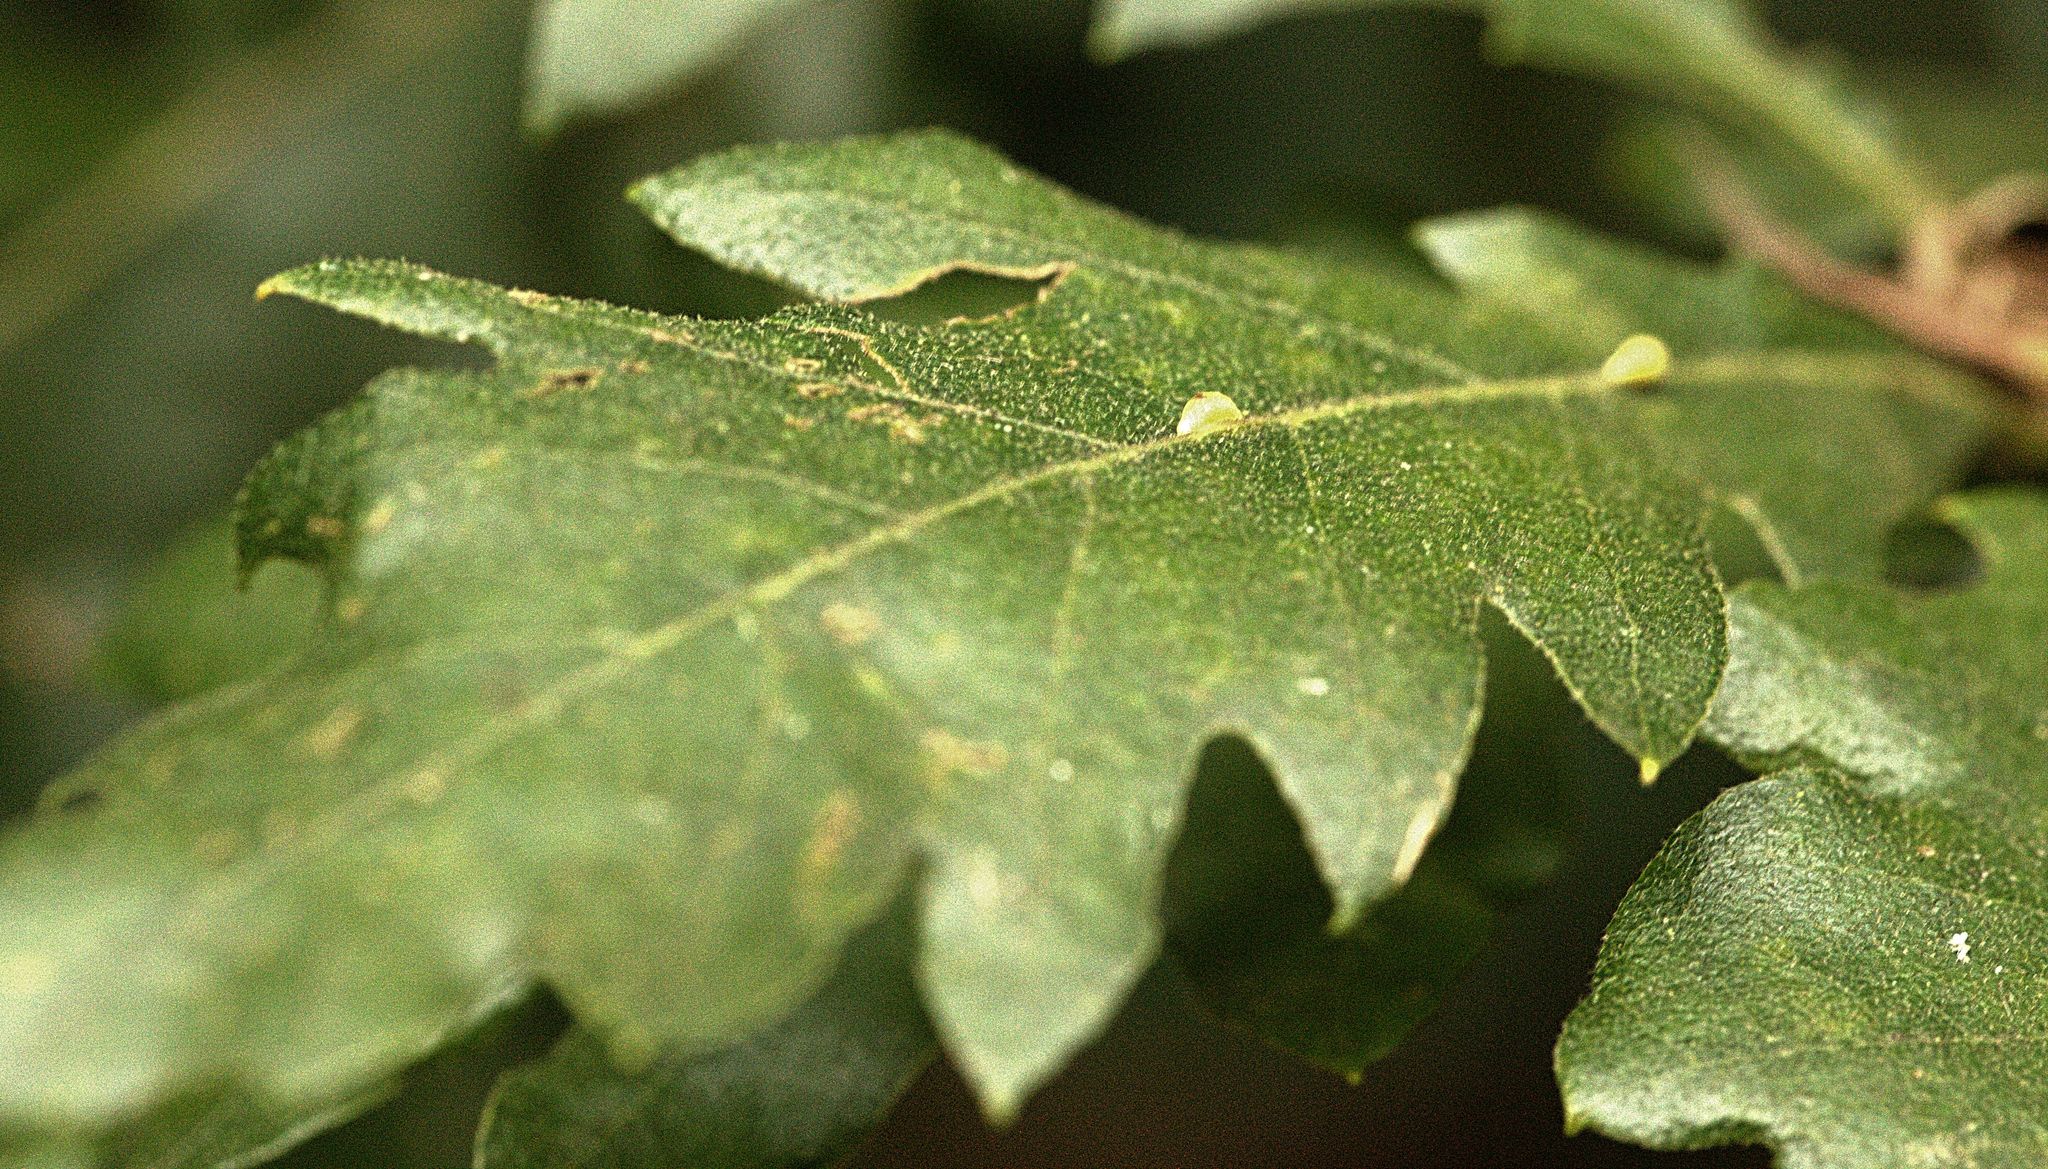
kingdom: Animalia
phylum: Arthropoda
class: Insecta
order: Hymenoptera
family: Cynipidae
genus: Neuroterus
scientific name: Neuroterus saliens
